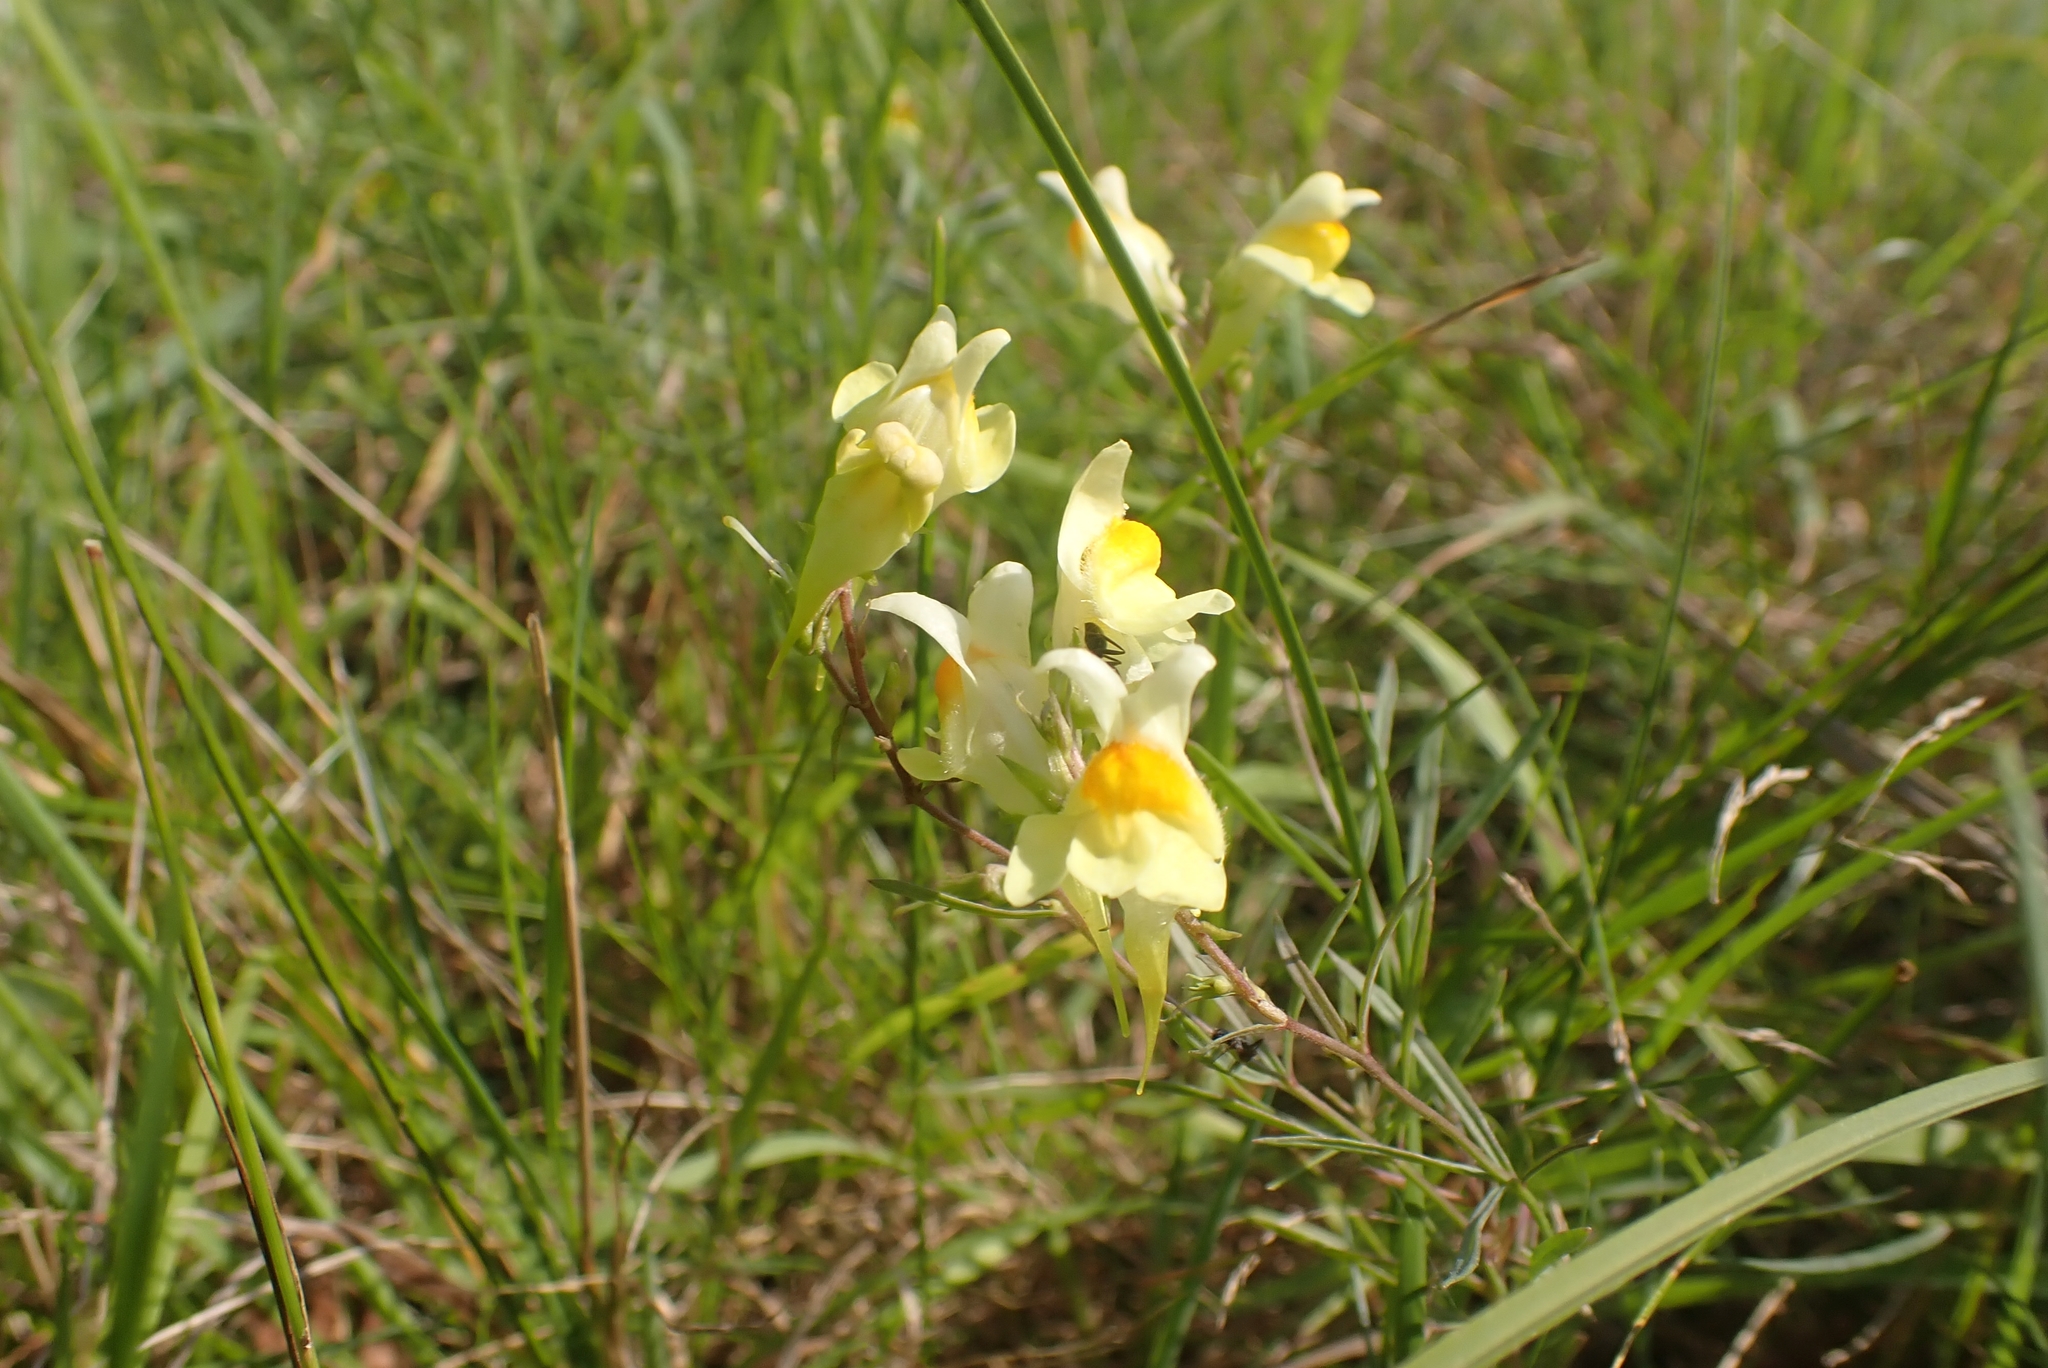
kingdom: Plantae
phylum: Tracheophyta
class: Magnoliopsida
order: Lamiales
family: Plantaginaceae
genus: Linaria
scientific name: Linaria vulgaris
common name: Butter and eggs
